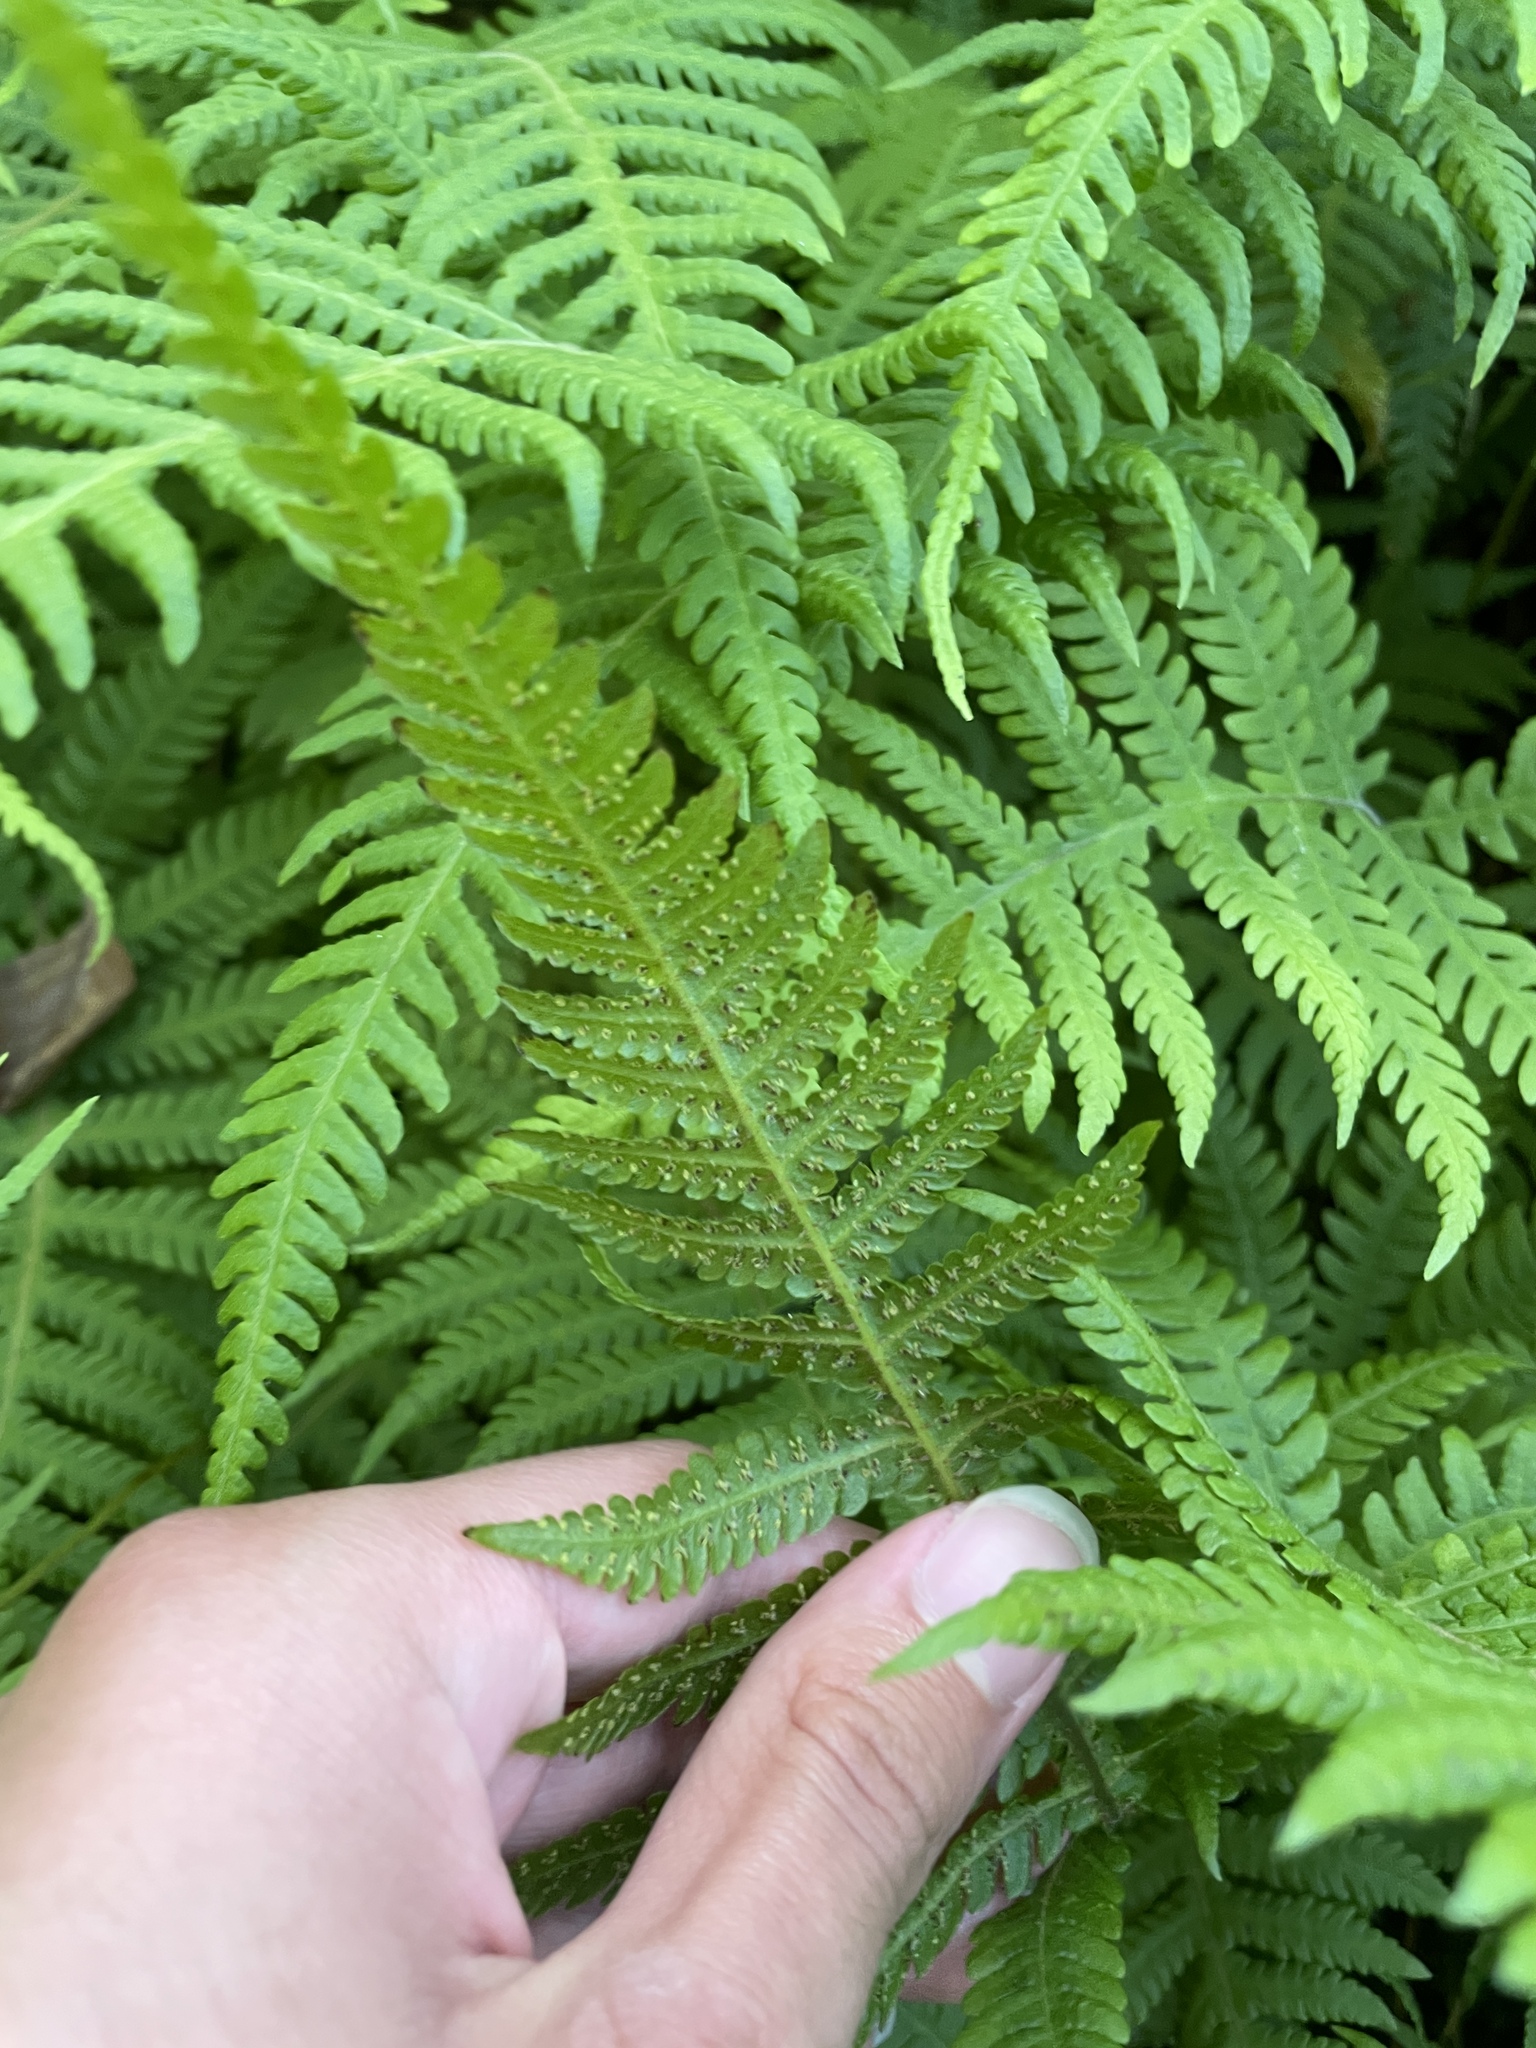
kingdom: Plantae
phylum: Tracheophyta
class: Polypodiopsida
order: Polypodiales
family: Thelypteridaceae
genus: Phegopteris
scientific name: Phegopteris connectilis
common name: Beech fern
